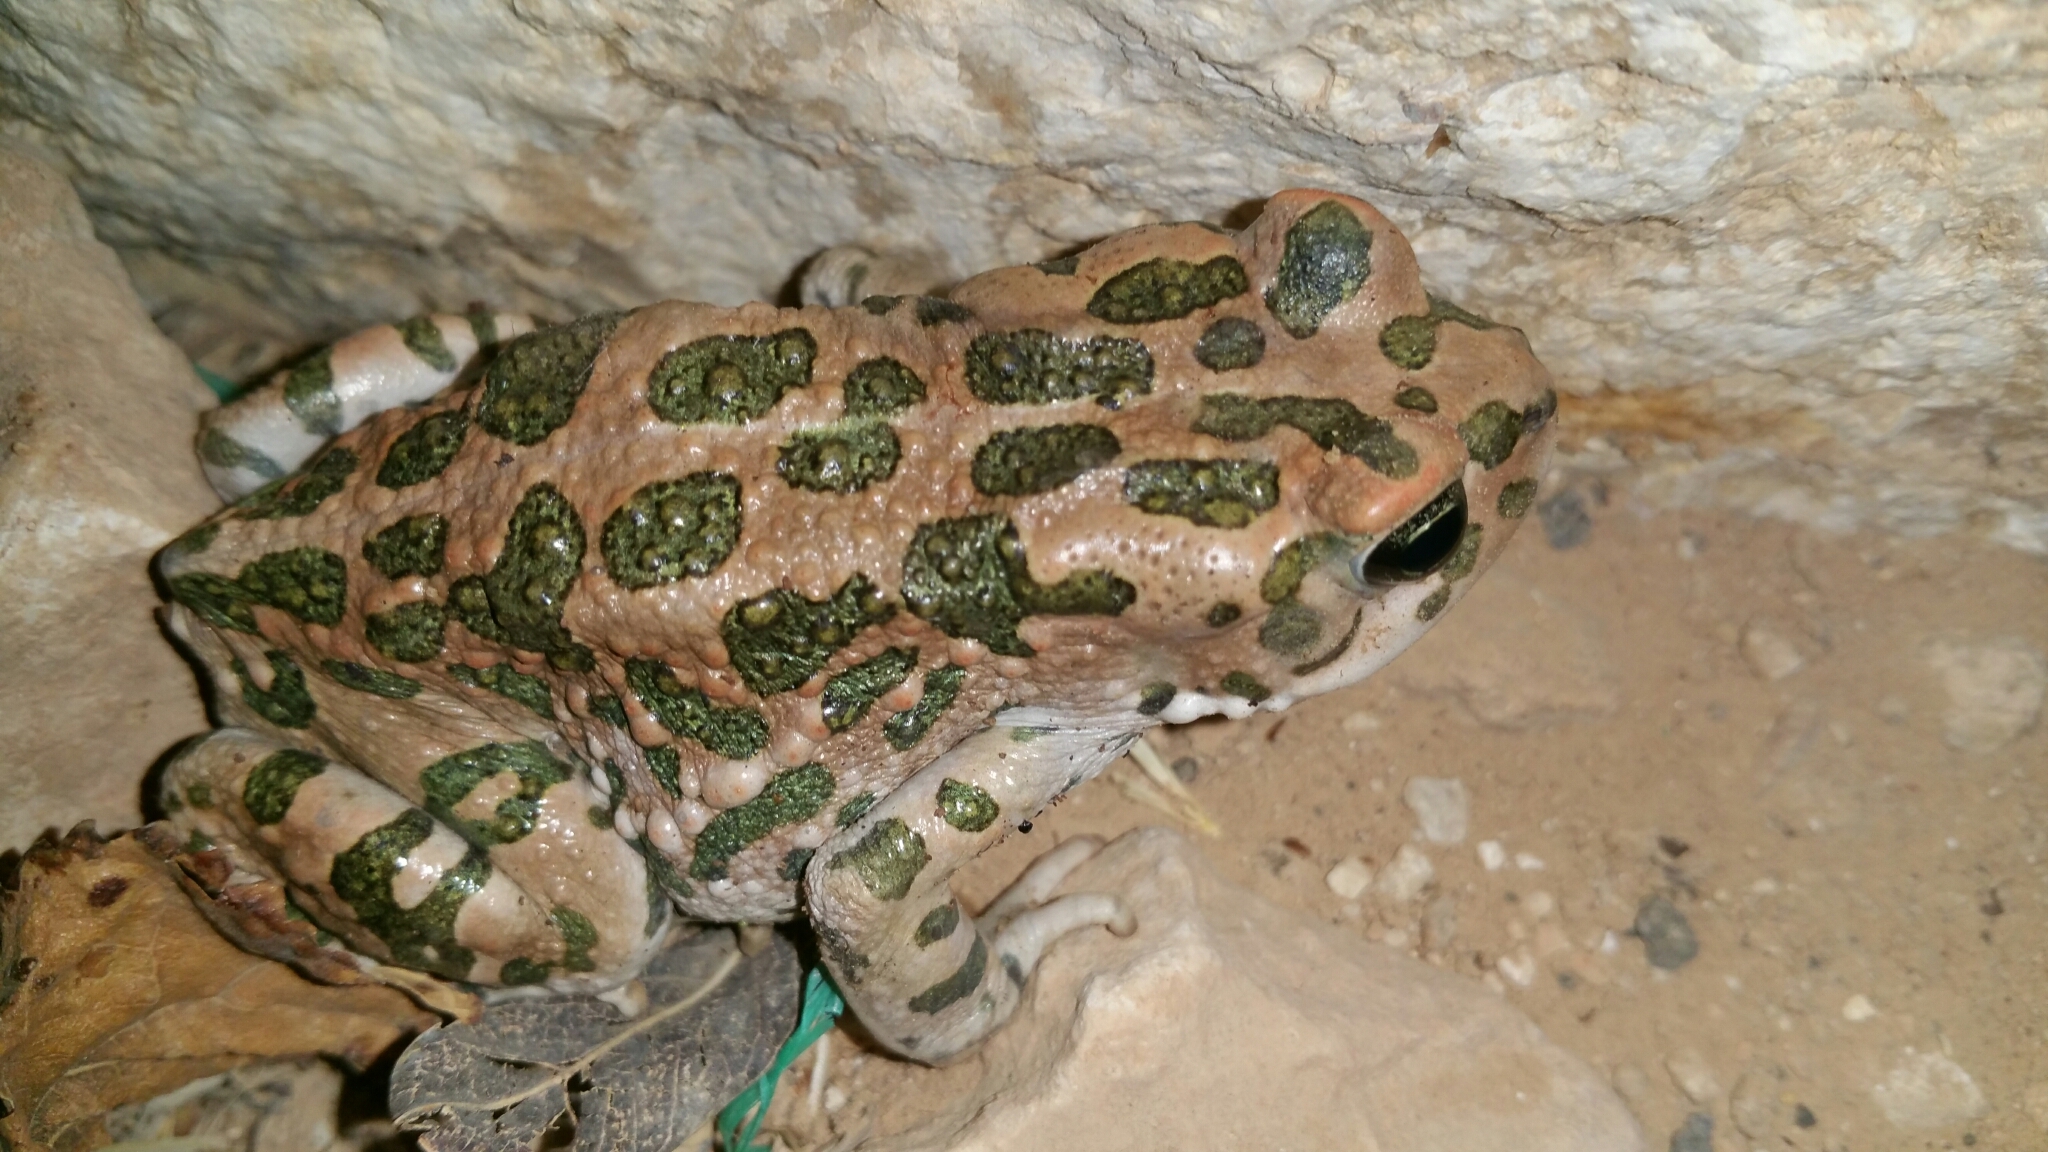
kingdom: Animalia
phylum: Chordata
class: Amphibia
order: Anura
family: Bufonidae
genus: Bufotes
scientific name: Bufotes viridis
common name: European green toad
